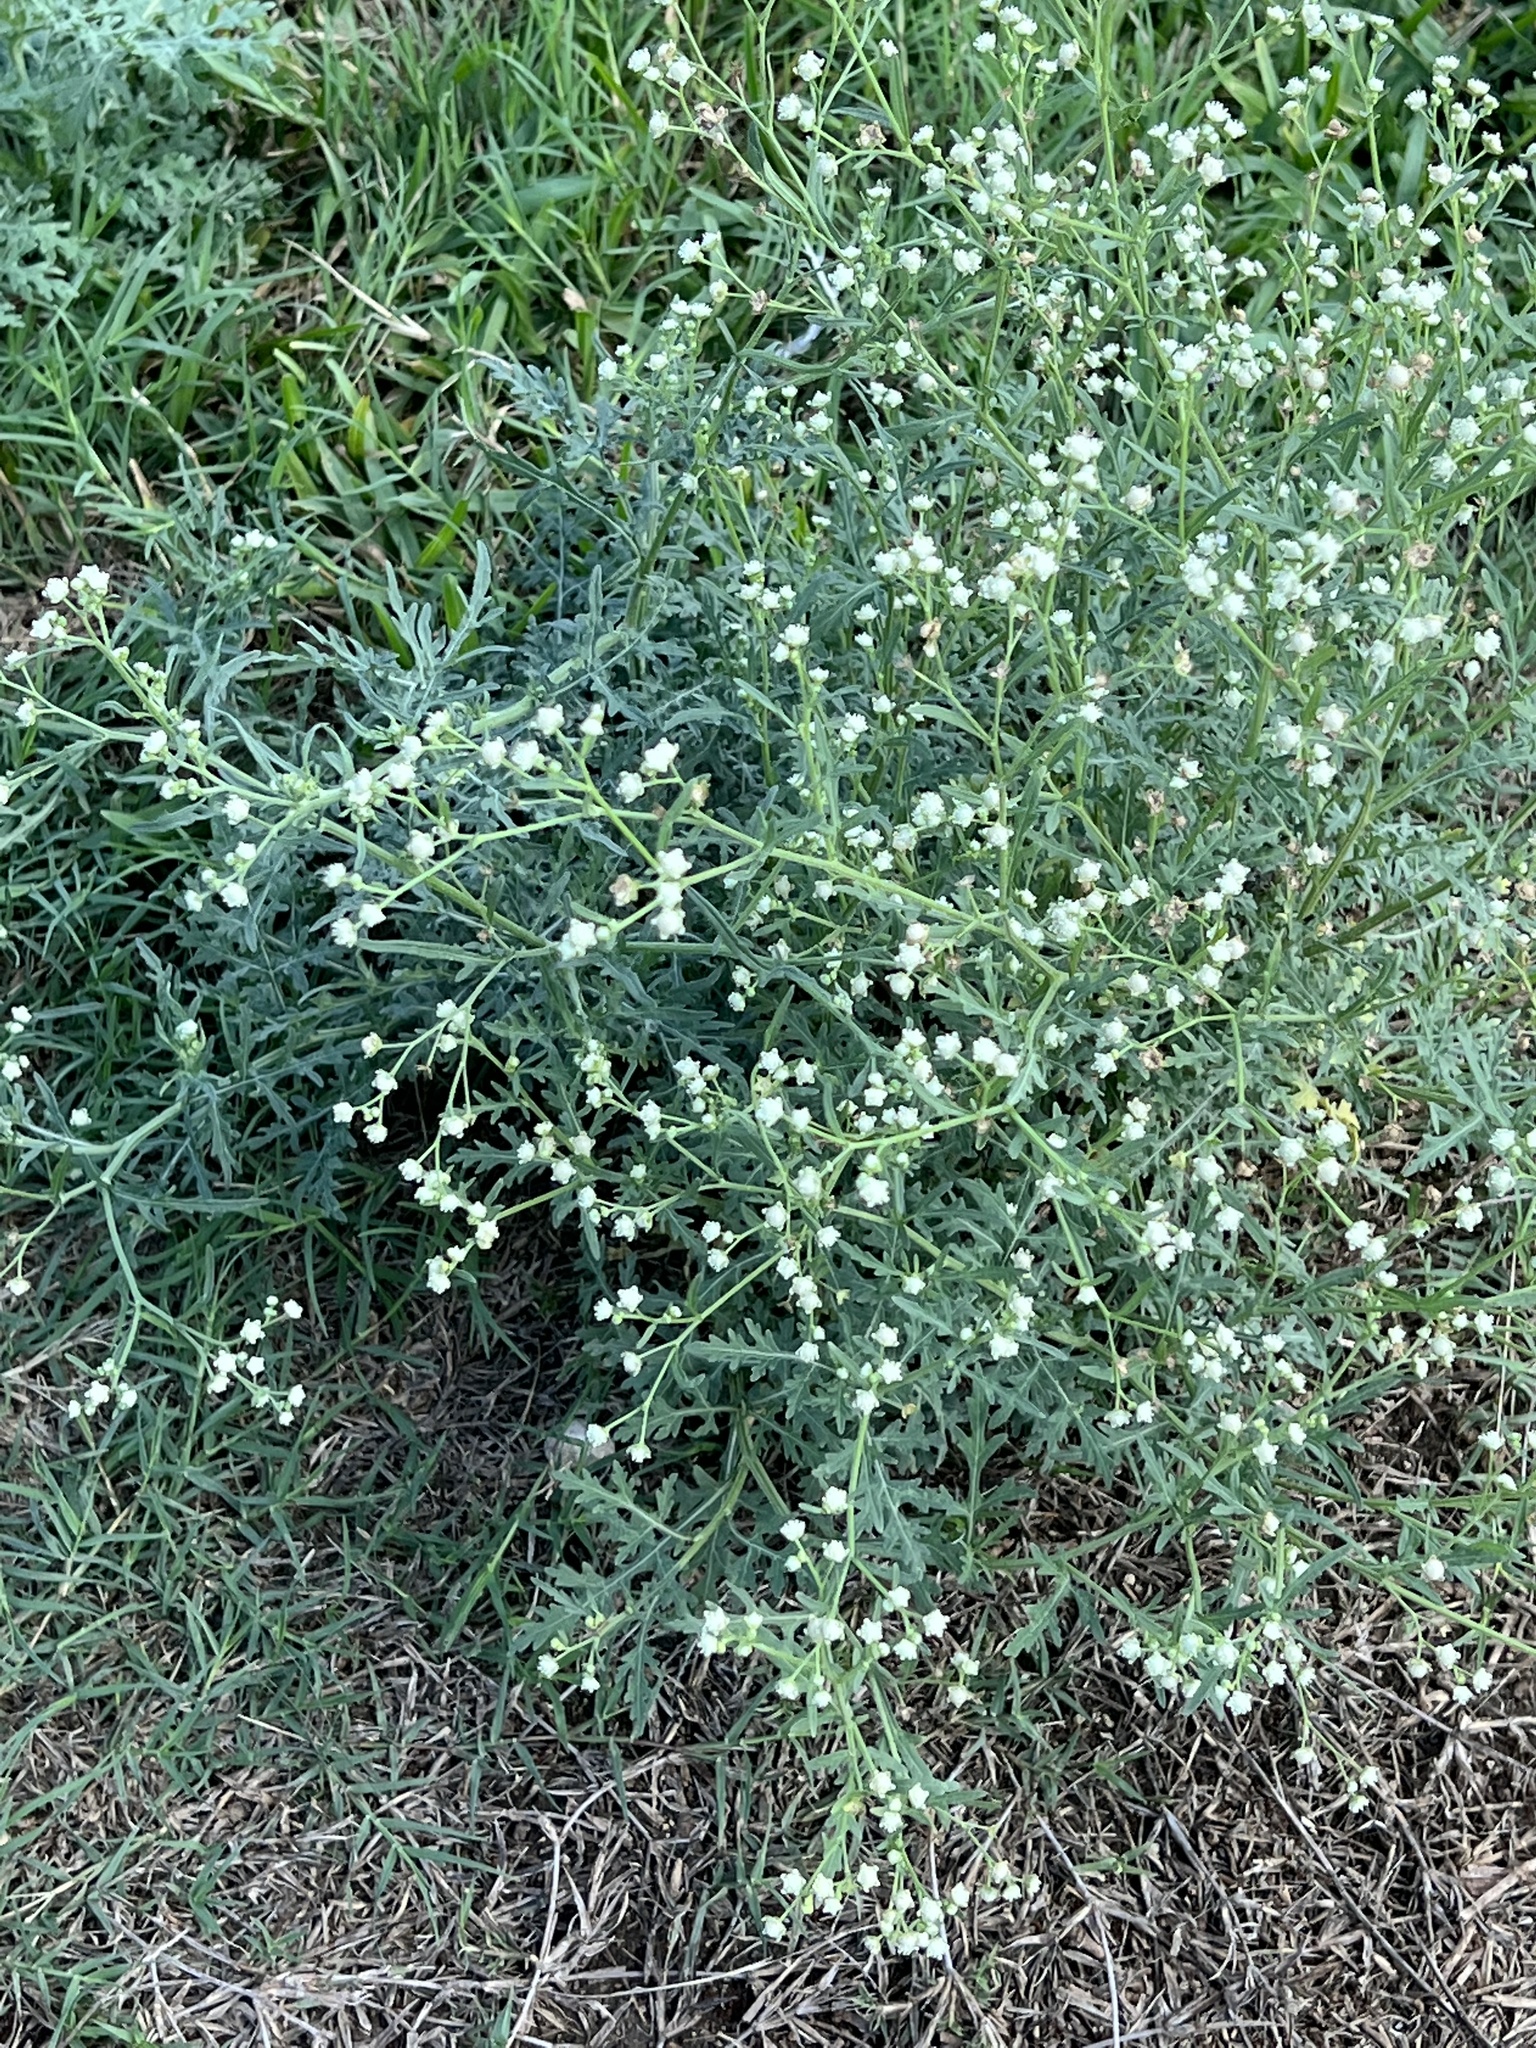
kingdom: Plantae
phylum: Tracheophyta
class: Magnoliopsida
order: Asterales
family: Asteraceae
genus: Parthenium
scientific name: Parthenium hysterophorus
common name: Santa maria feverfew
